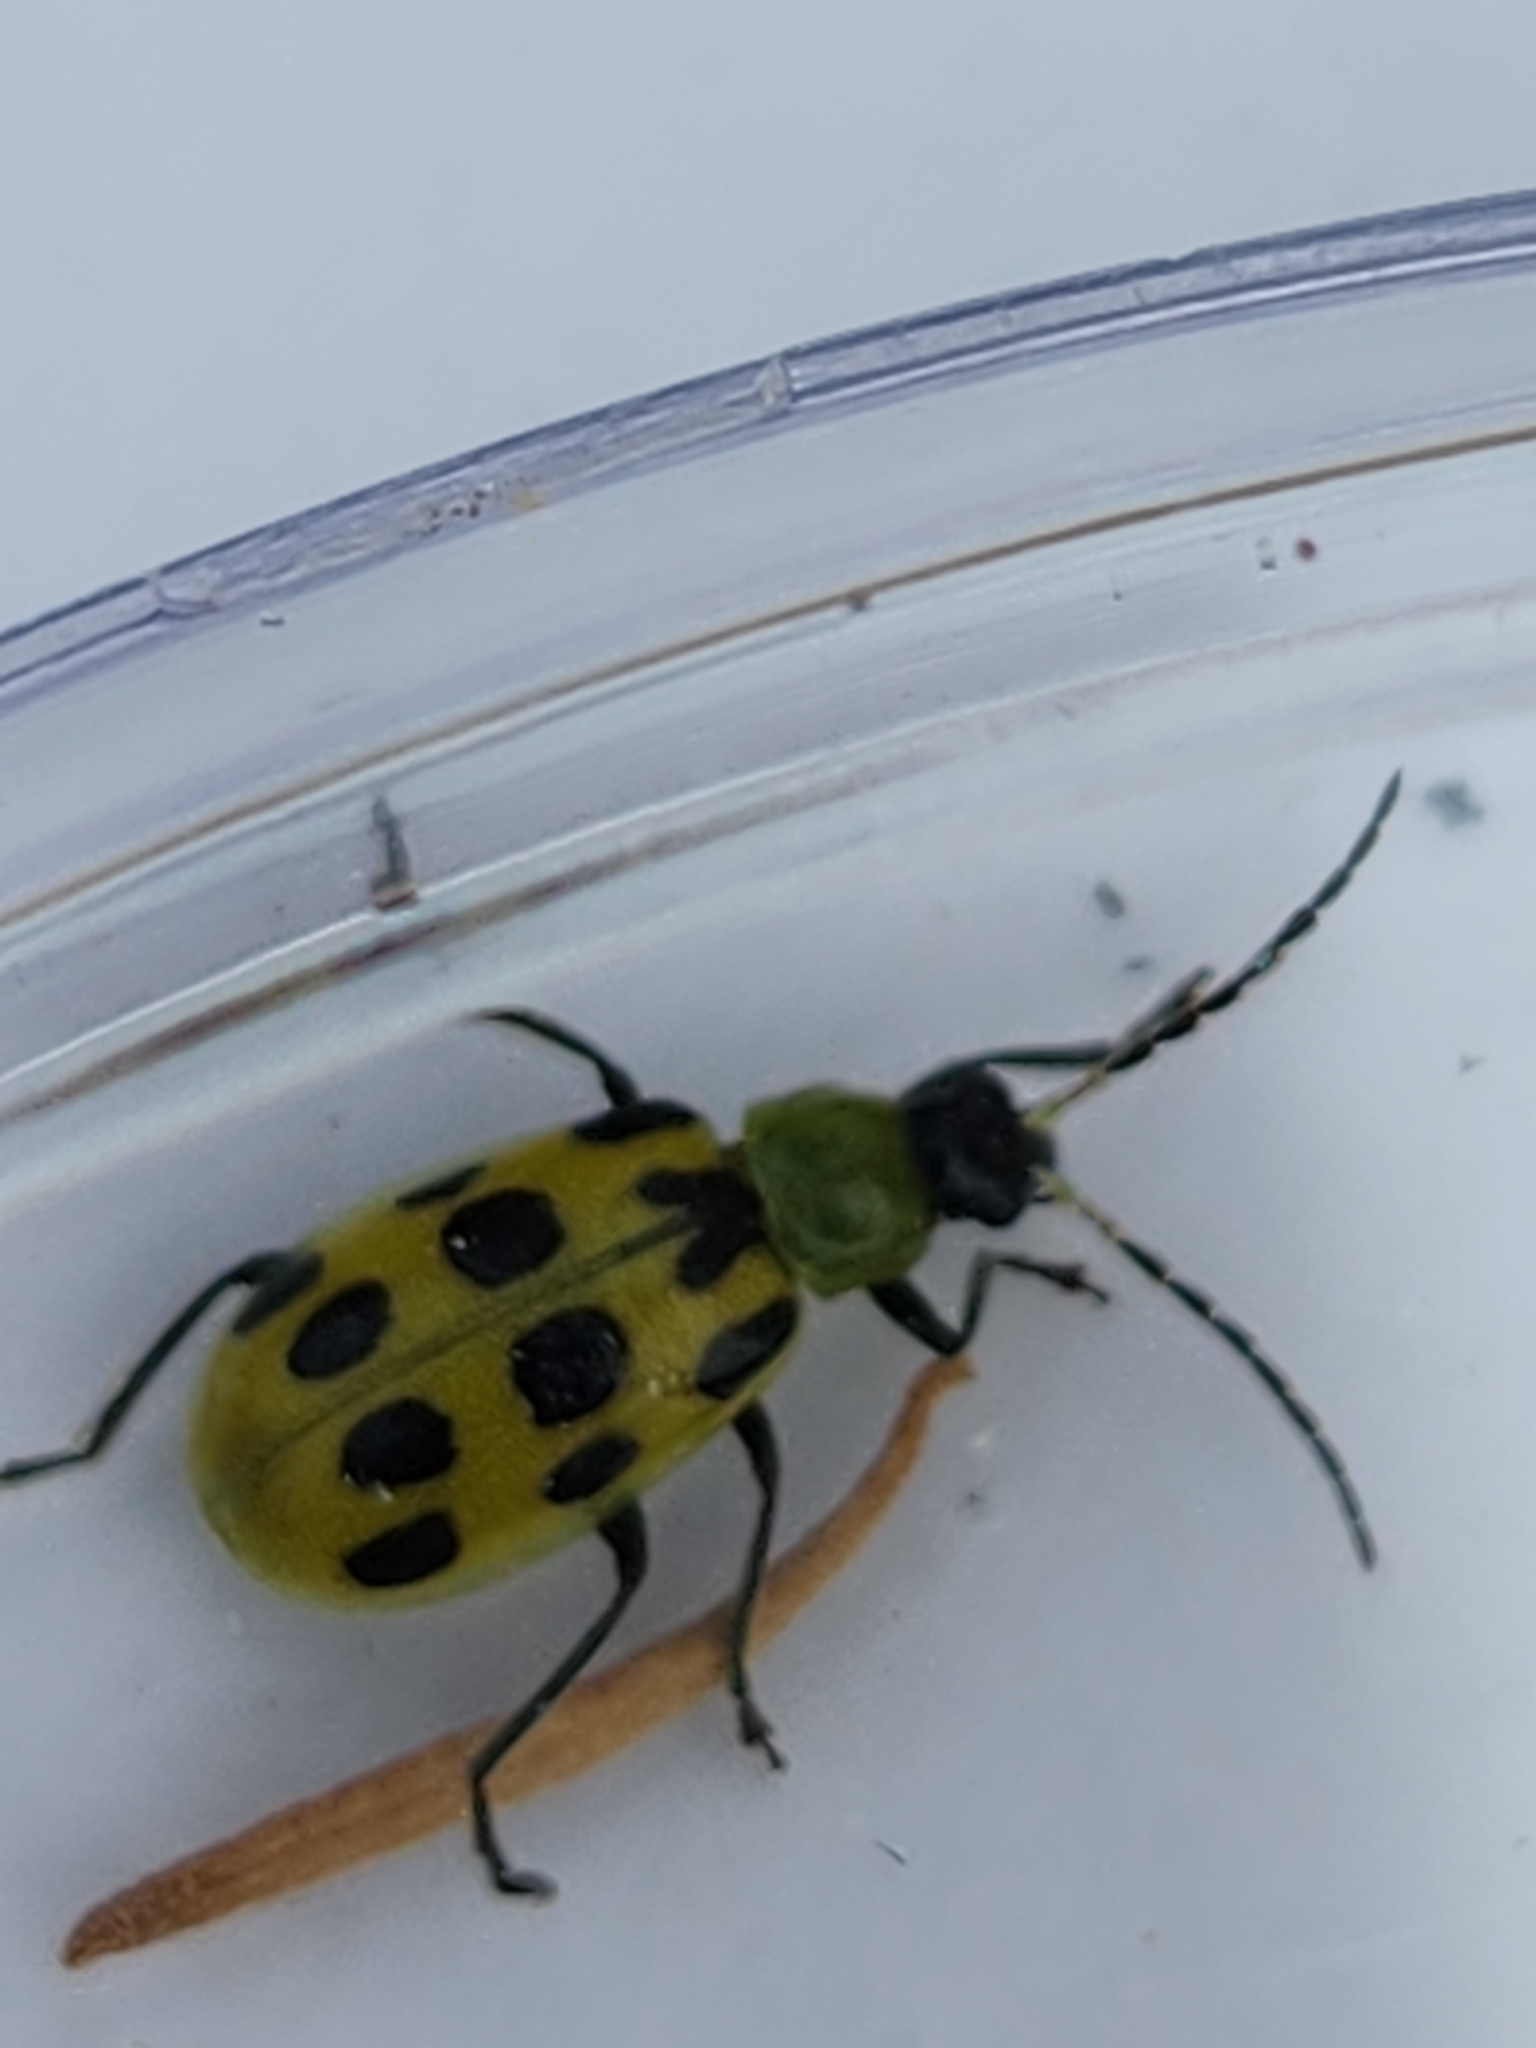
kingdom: Animalia
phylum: Arthropoda
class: Insecta
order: Coleoptera
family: Chrysomelidae
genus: Diabrotica
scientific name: Diabrotica undecimpunctata
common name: Spotted cucumber beetle
